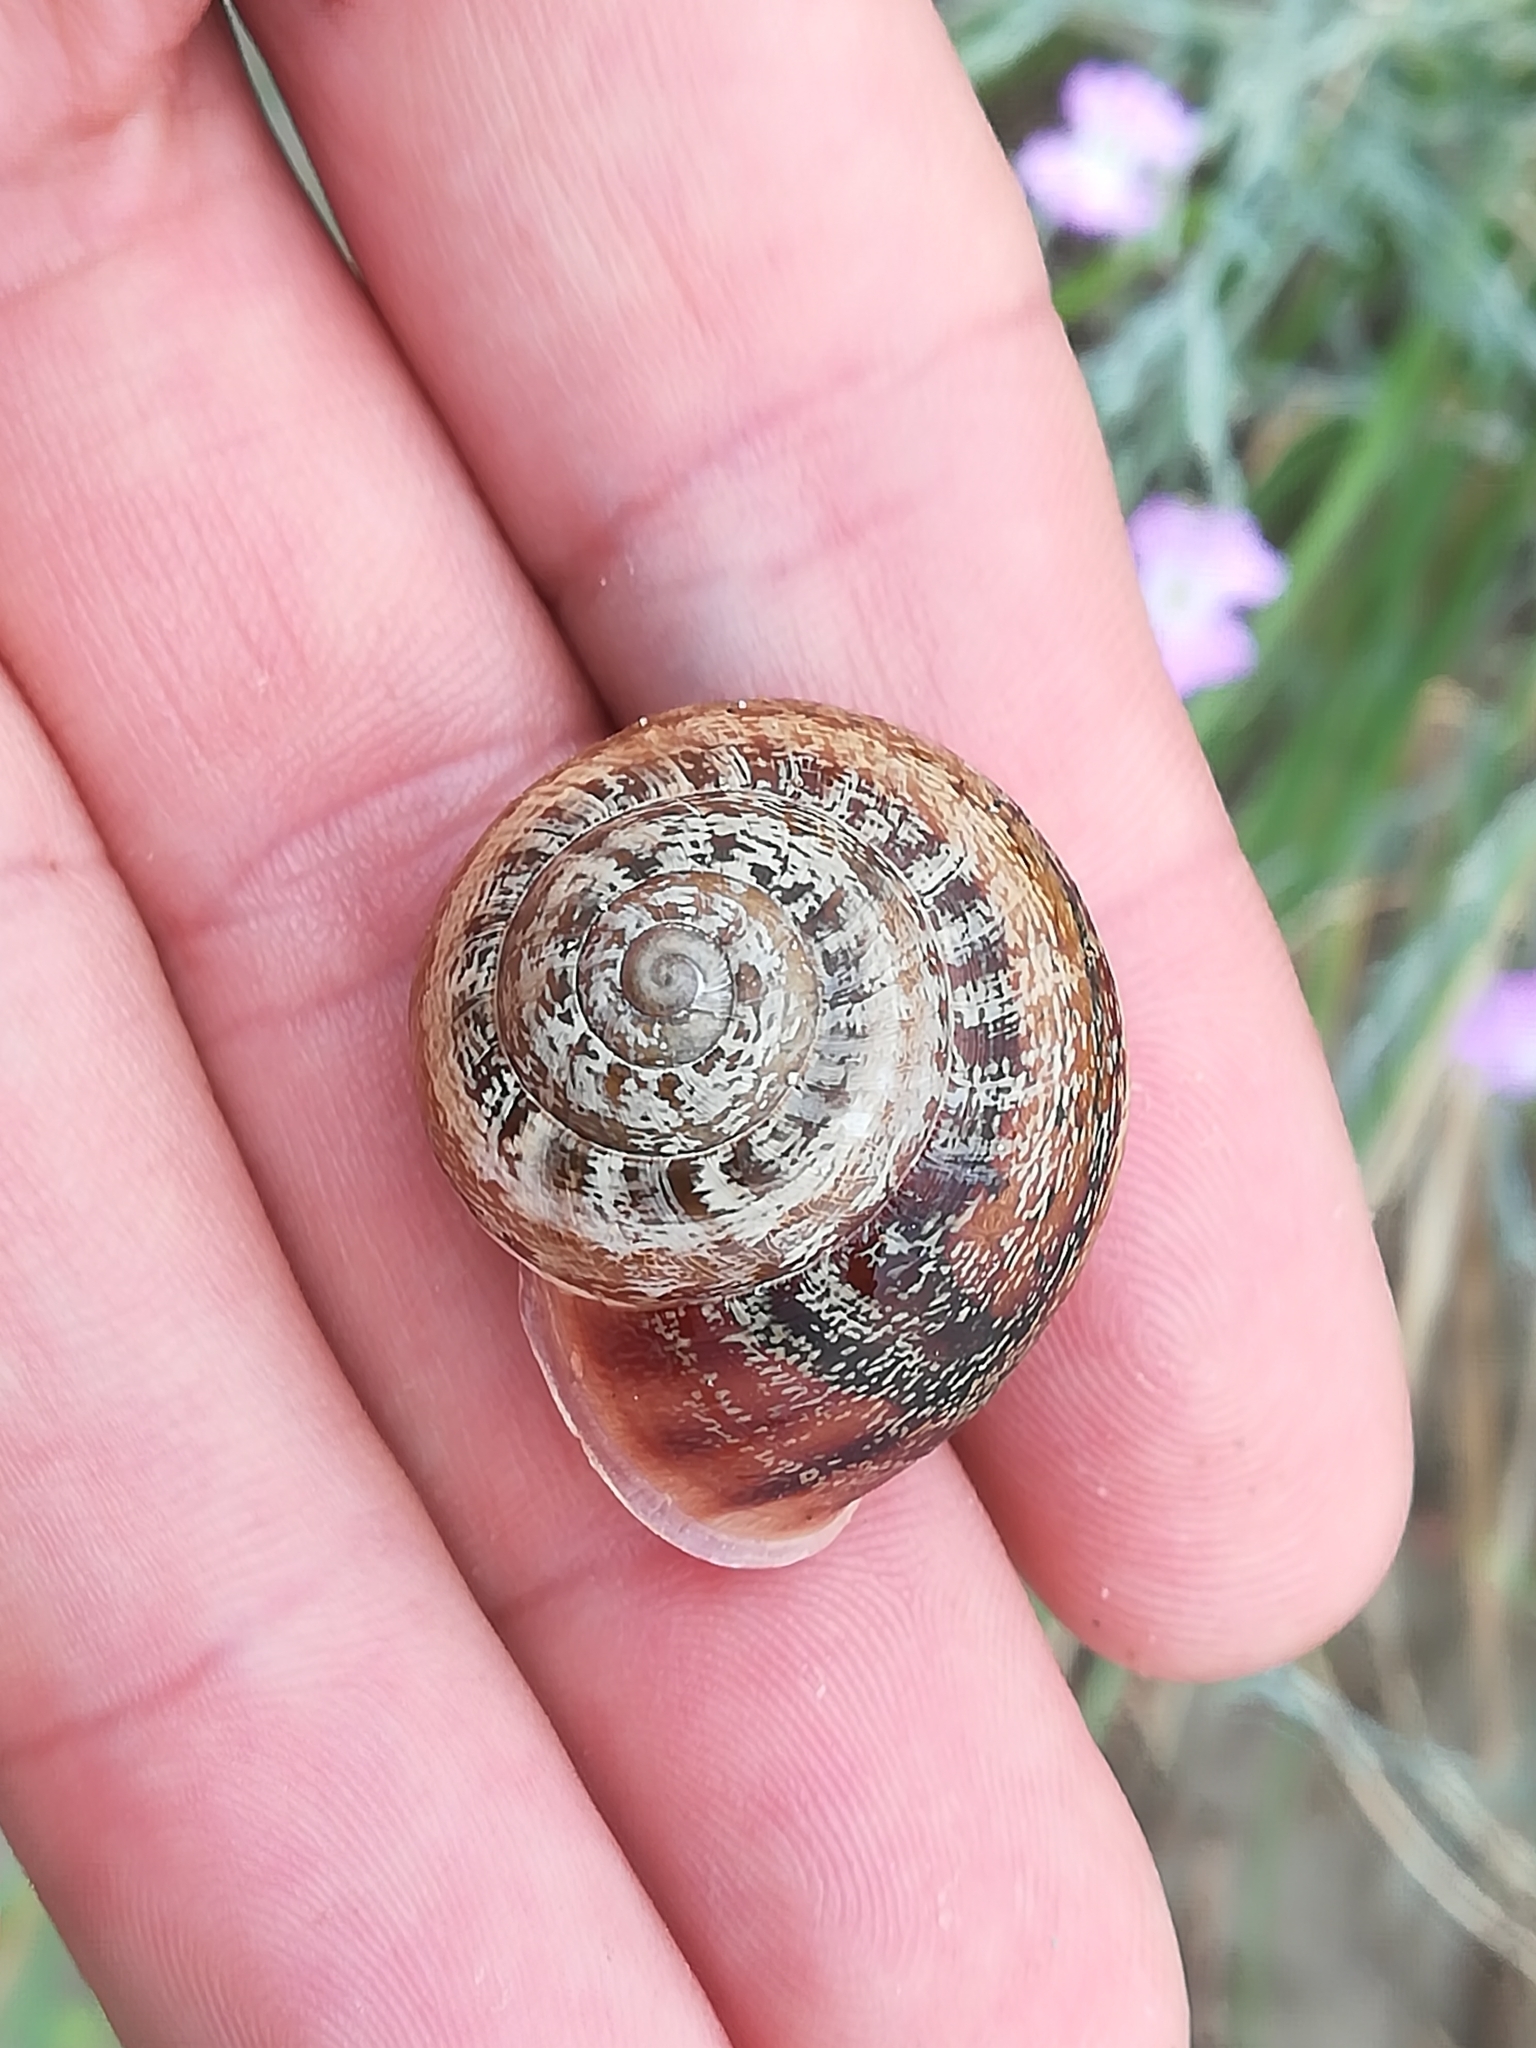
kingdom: Animalia
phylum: Mollusca
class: Gastropoda
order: Stylommatophora
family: Helicidae
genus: Eobania
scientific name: Eobania vermiculata
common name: Chocolateband snail
